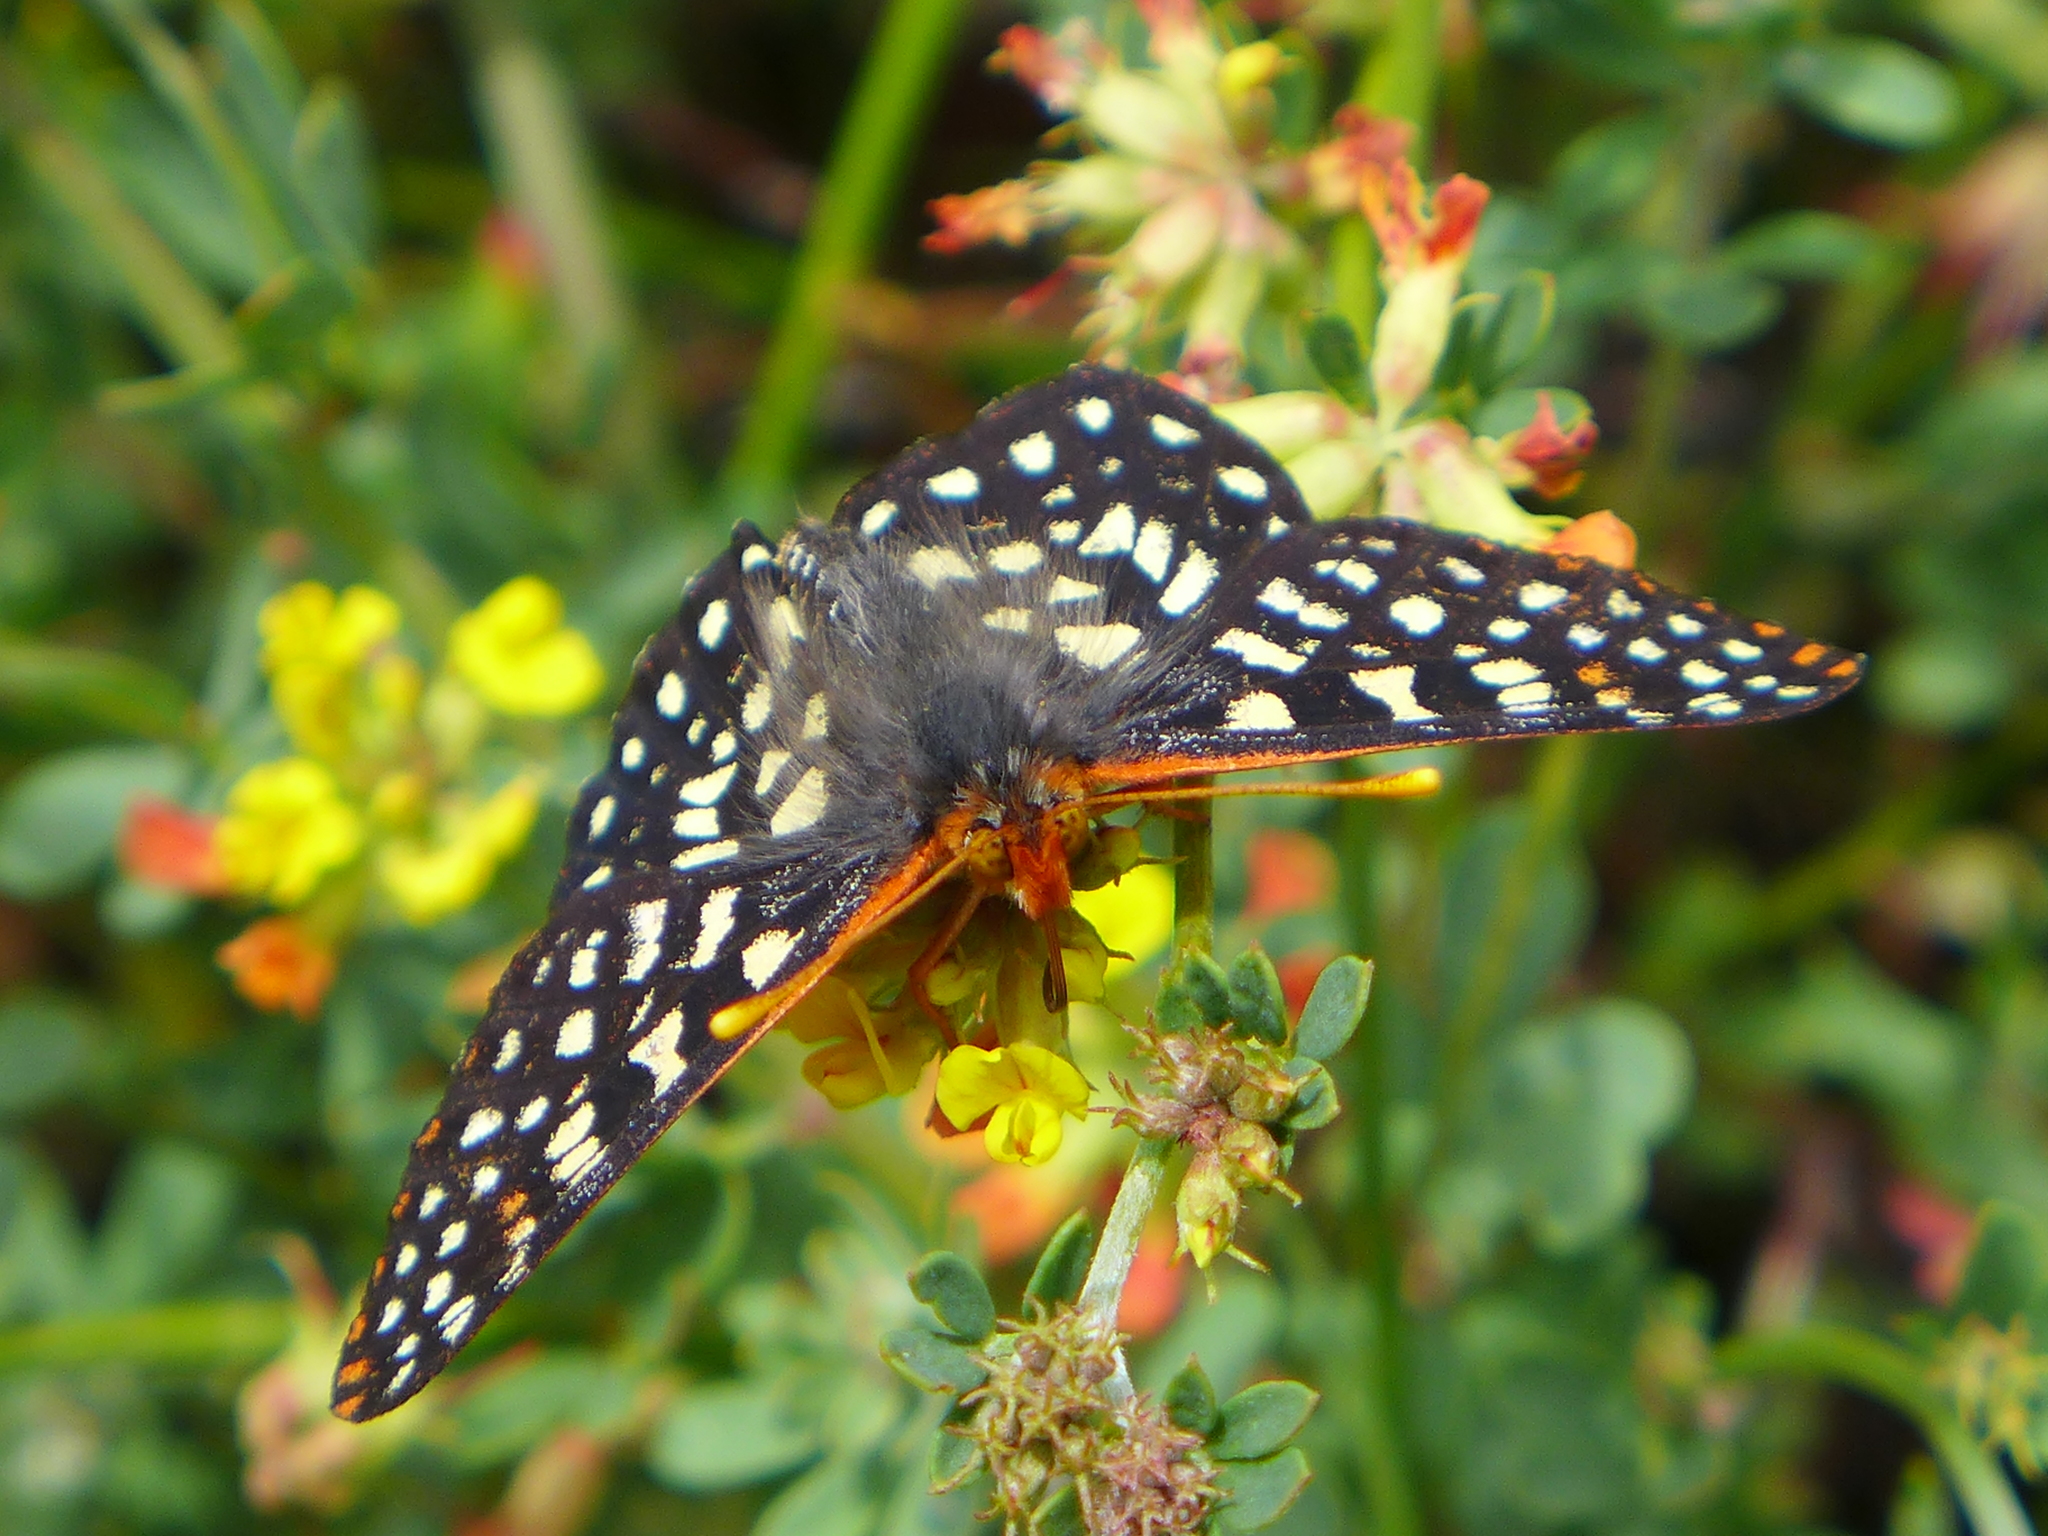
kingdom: Animalia
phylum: Arthropoda
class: Insecta
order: Lepidoptera
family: Nymphalidae
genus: Occidryas
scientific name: Occidryas chalcedona
